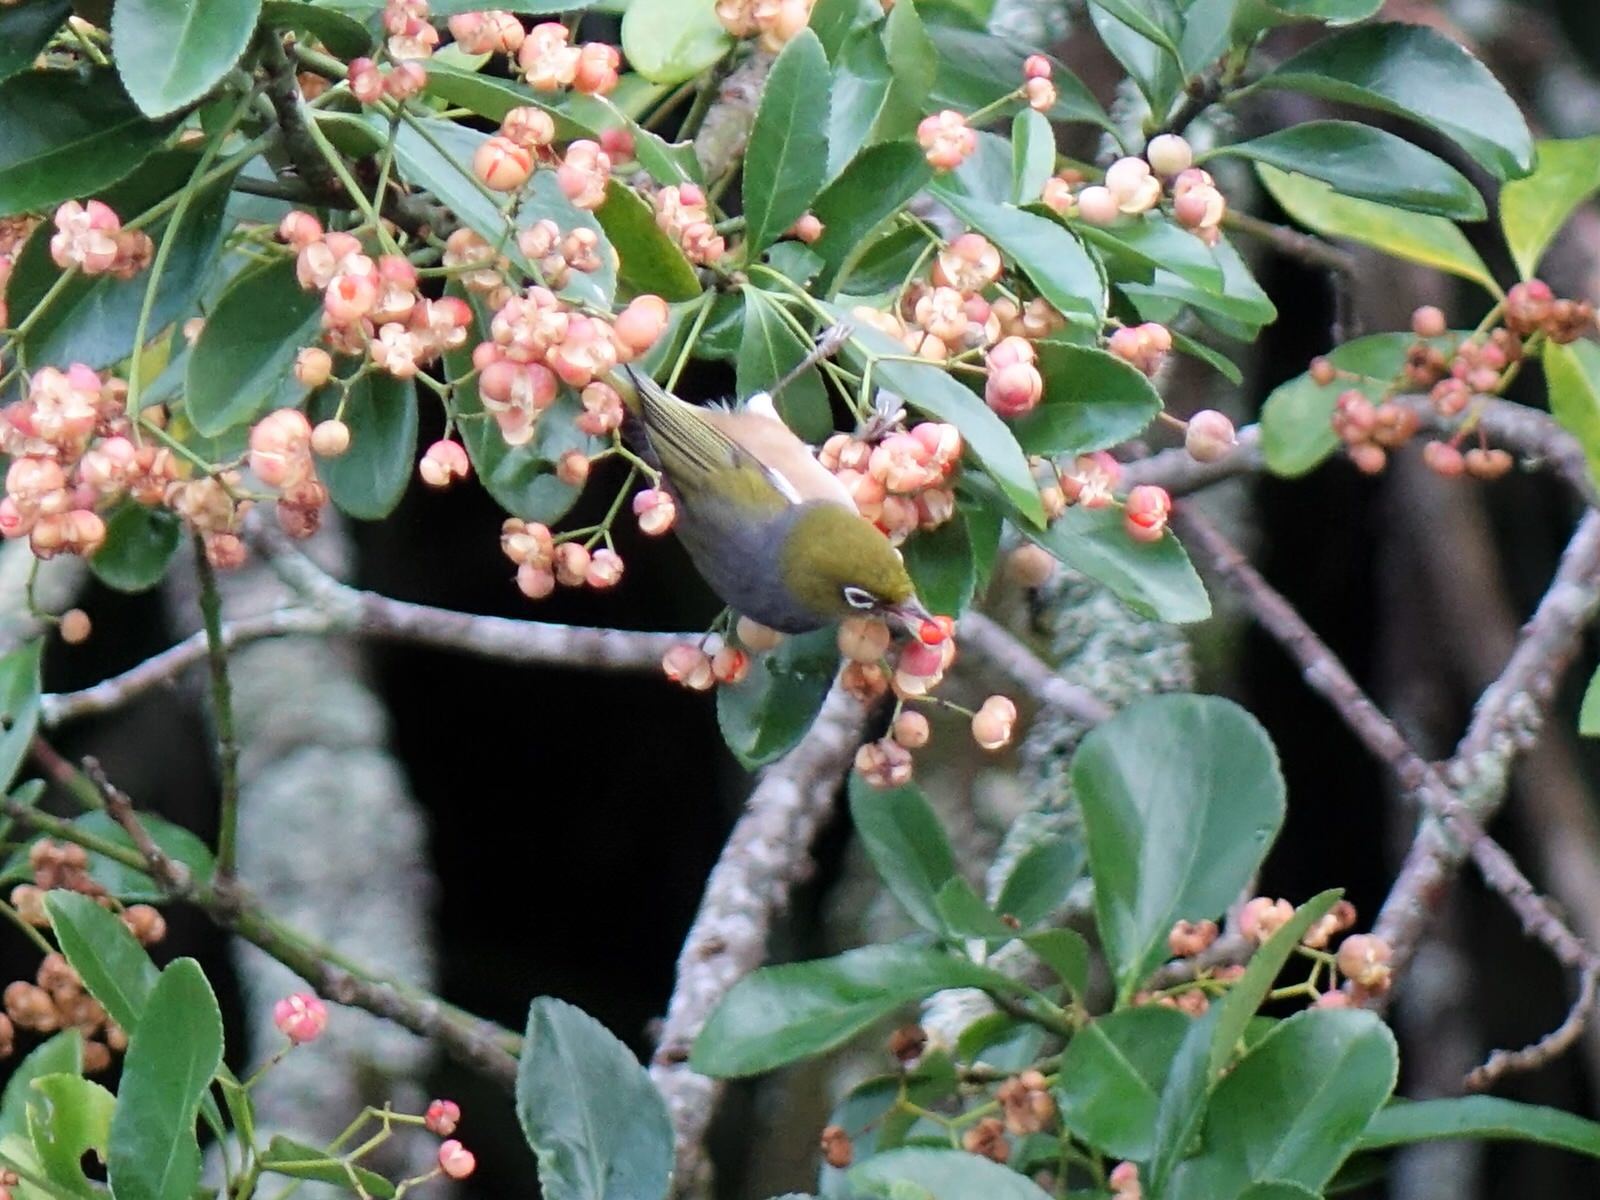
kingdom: Animalia
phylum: Chordata
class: Aves
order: Passeriformes
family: Zosteropidae
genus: Zosterops
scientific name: Zosterops lateralis
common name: Silvereye
